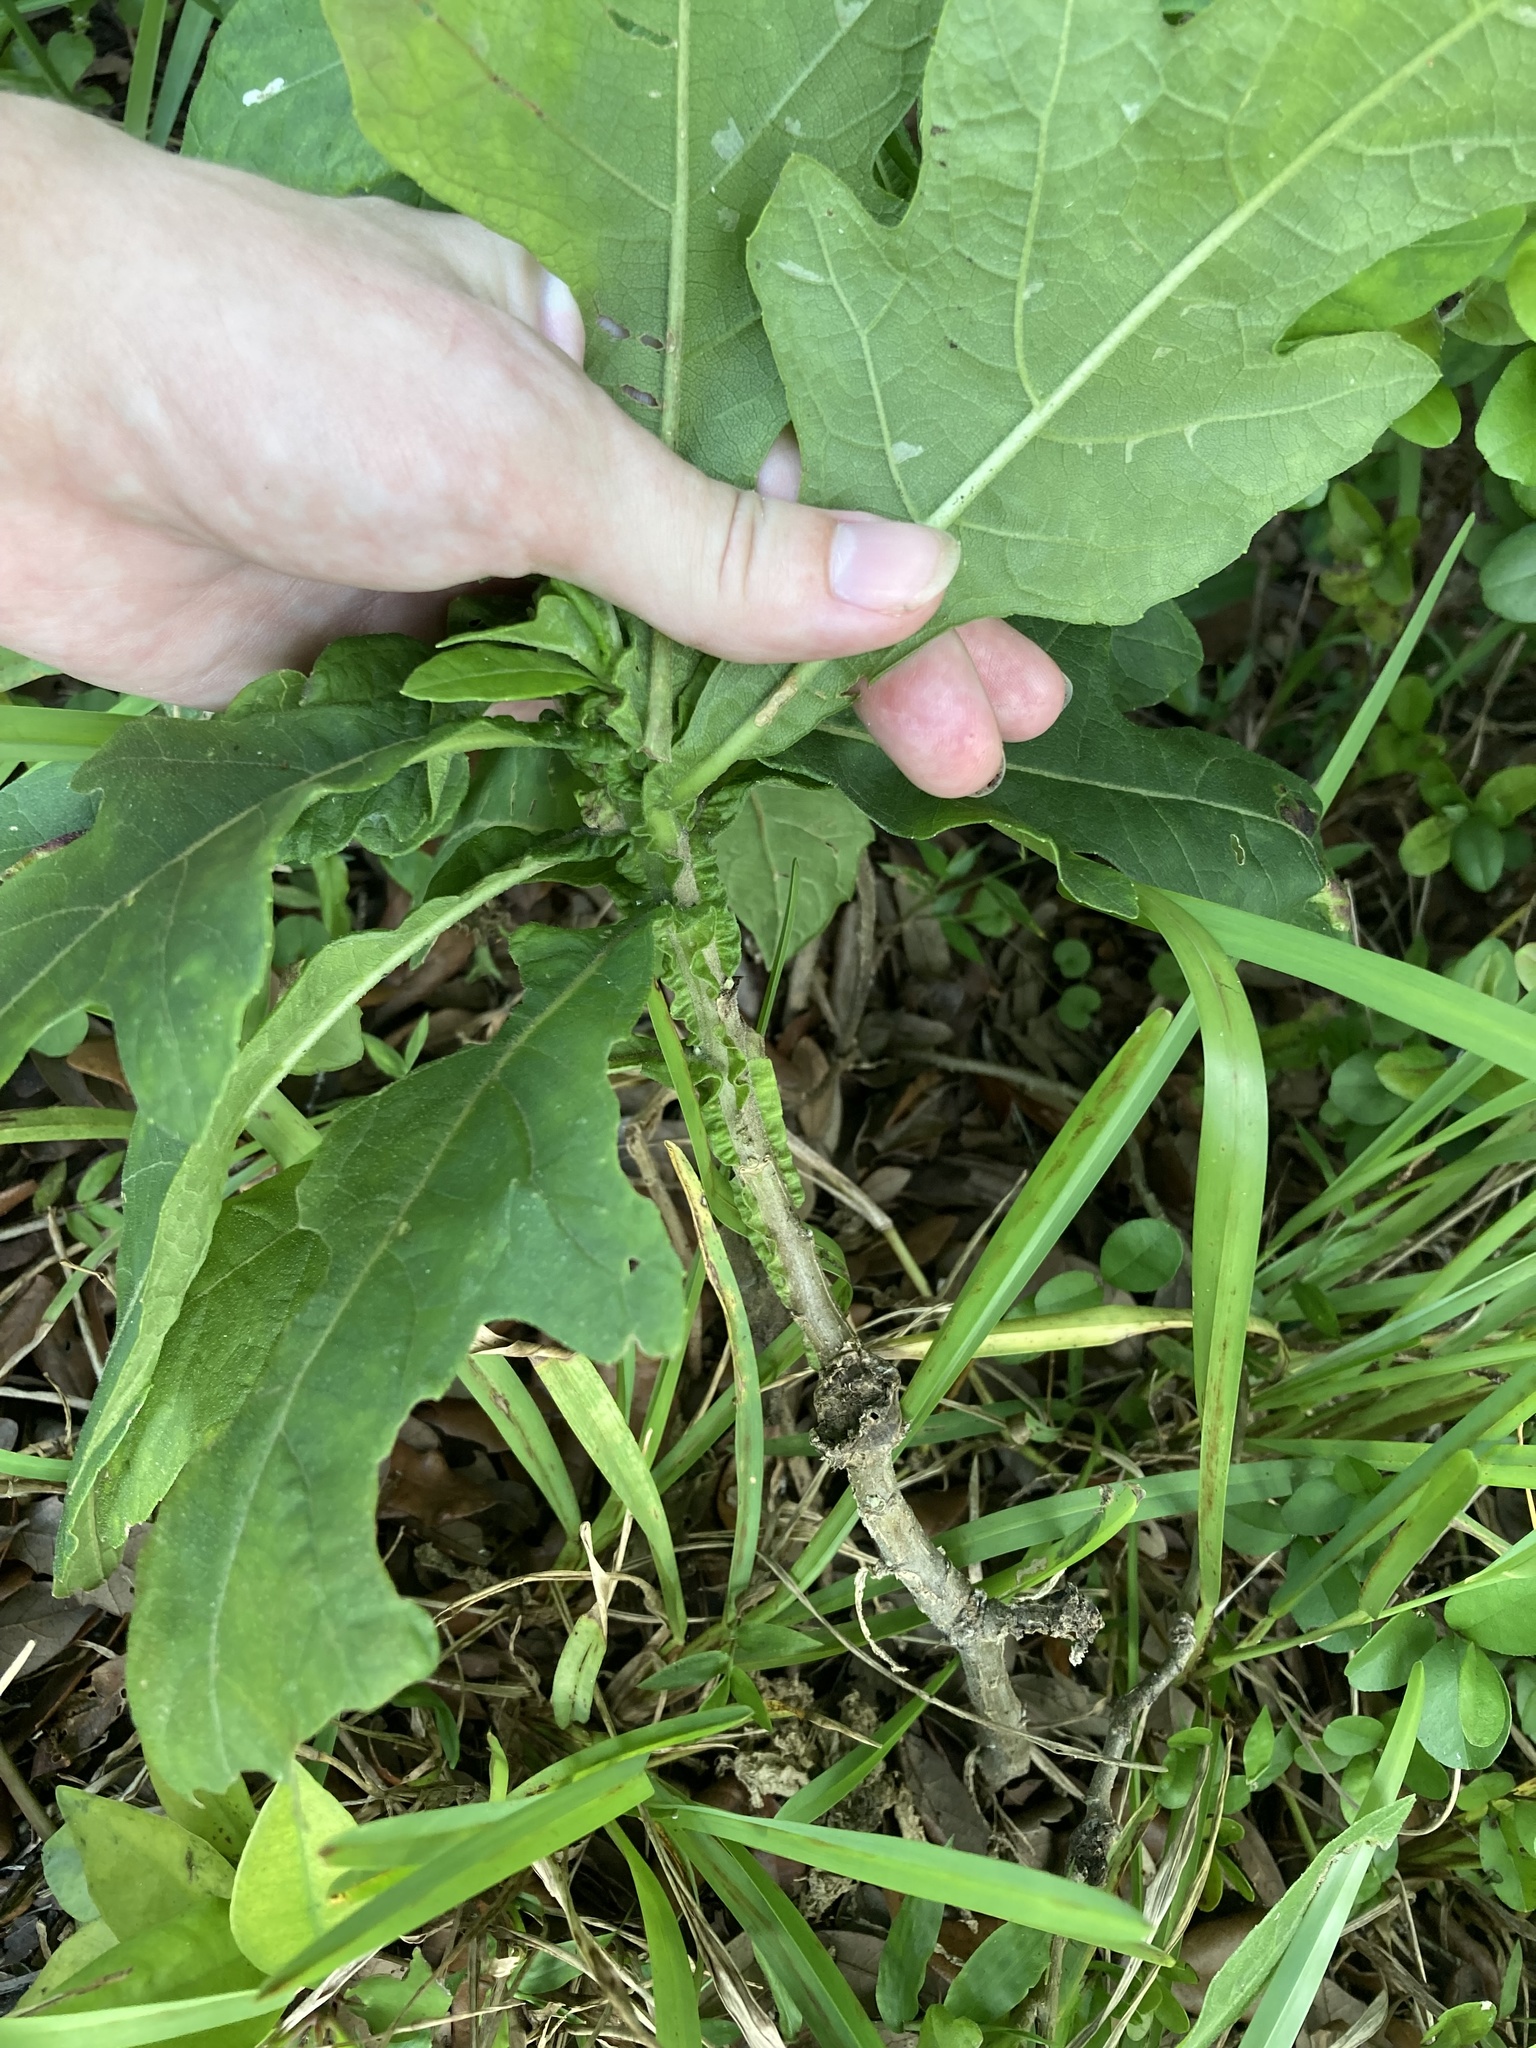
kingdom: Plantae
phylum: Tracheophyta
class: Magnoliopsida
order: Asterales
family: Asteraceae
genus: Verbesina
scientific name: Verbesina virginica
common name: Frostweed
